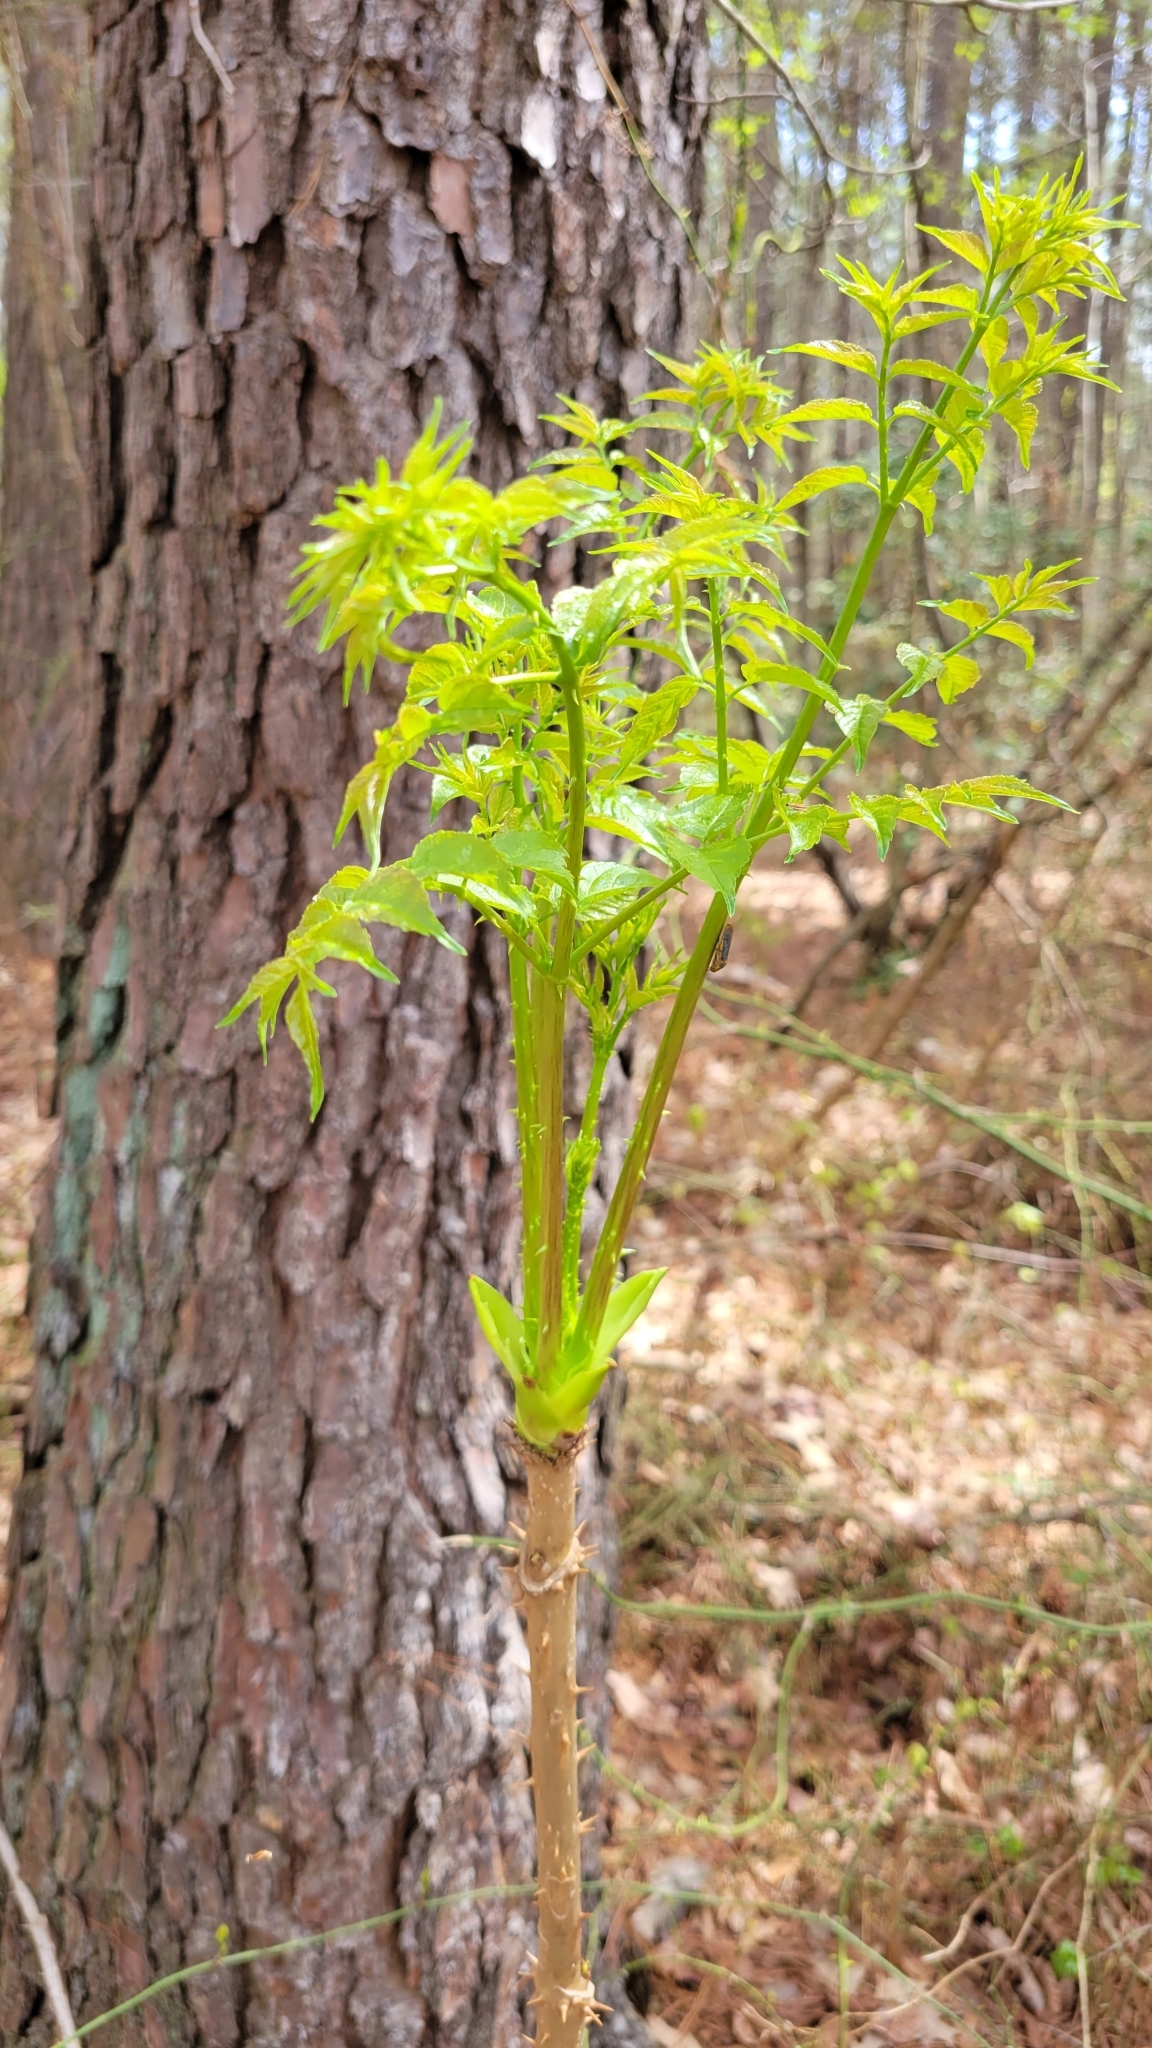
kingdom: Plantae
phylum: Tracheophyta
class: Magnoliopsida
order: Apiales
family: Araliaceae
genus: Aralia
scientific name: Aralia spinosa
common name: Hercules'-club
